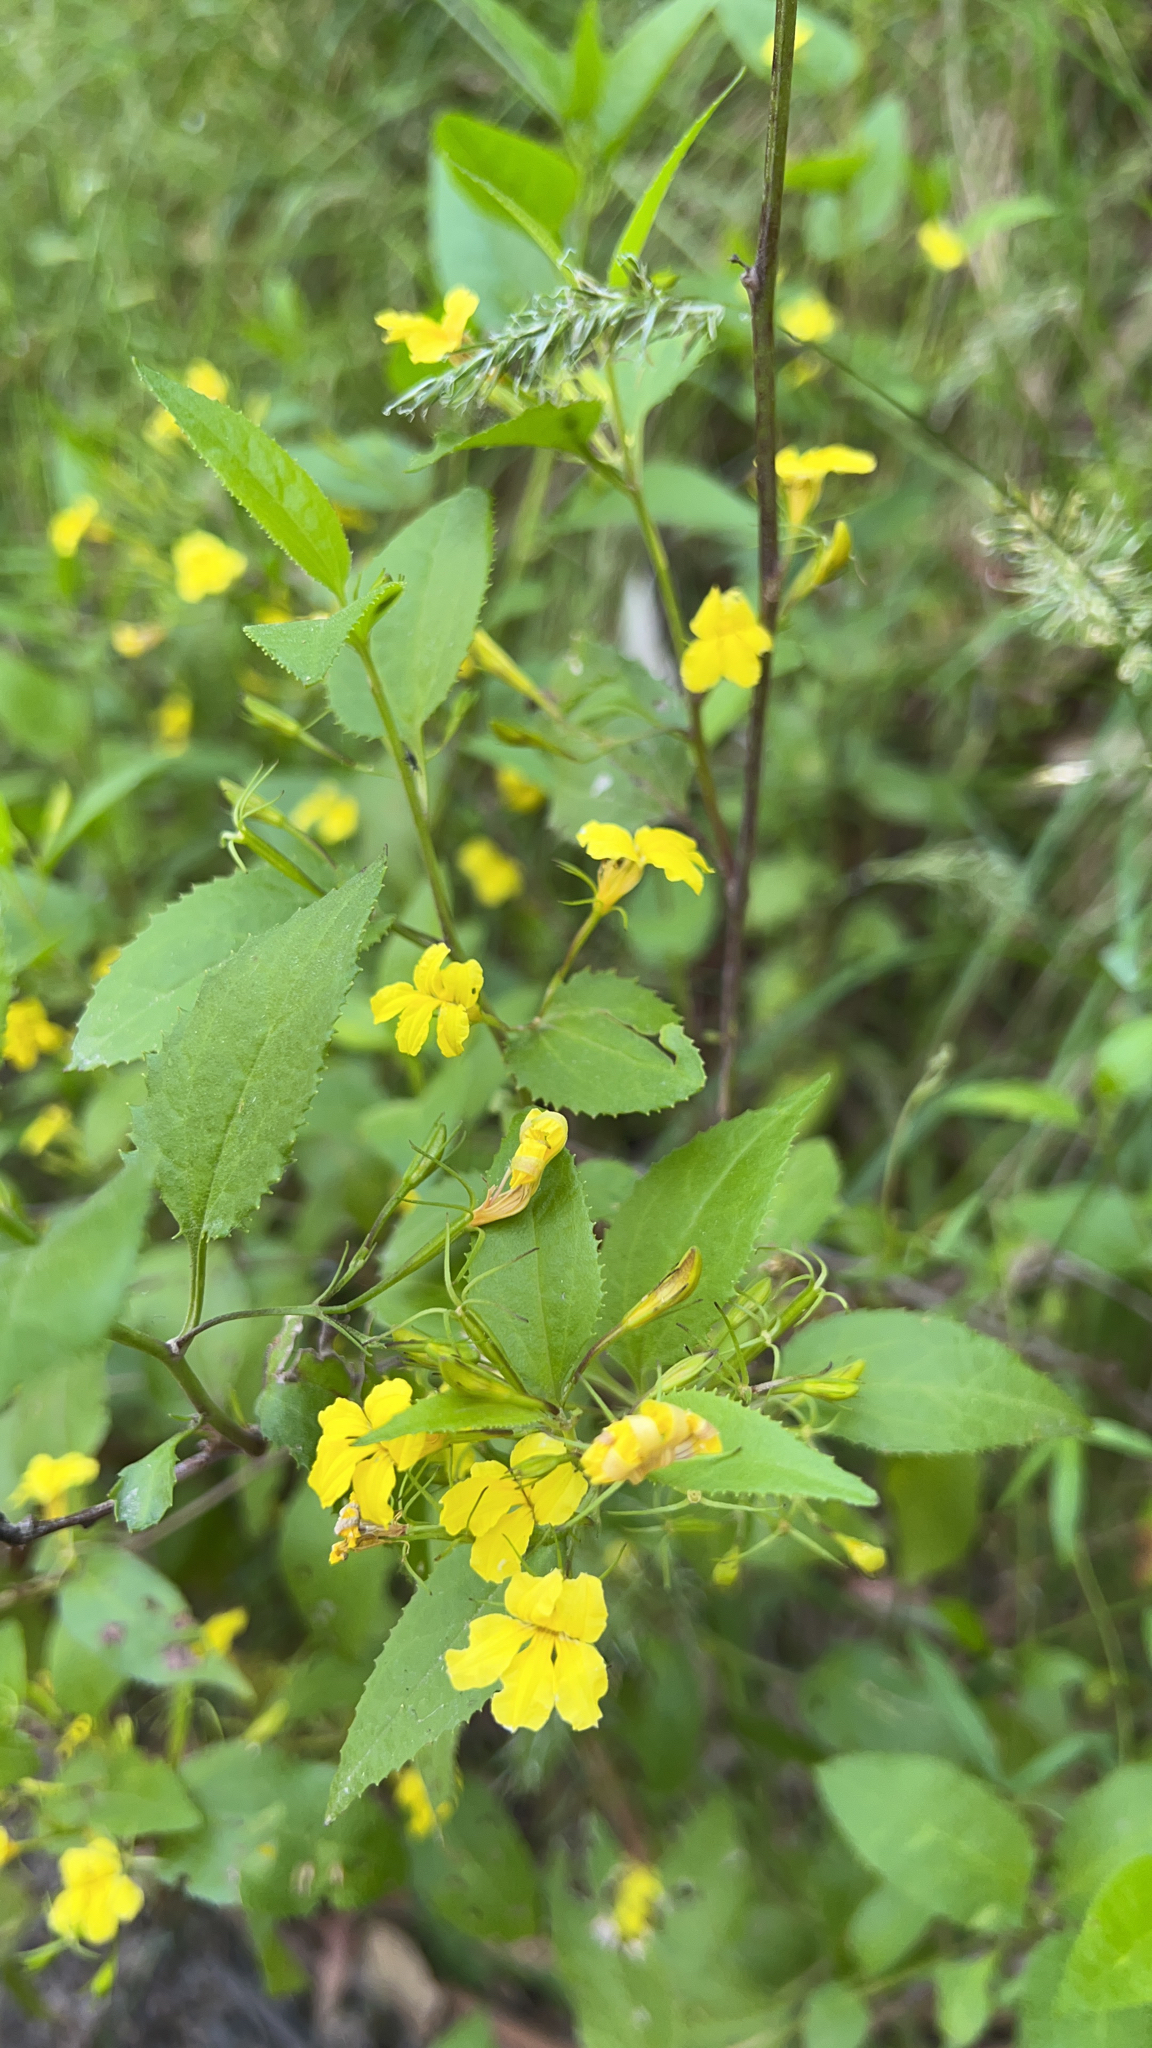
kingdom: Plantae
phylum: Tracheophyta
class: Magnoliopsida
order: Asterales
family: Goodeniaceae
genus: Goodenia
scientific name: Goodenia ovata
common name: Hop goodenia
